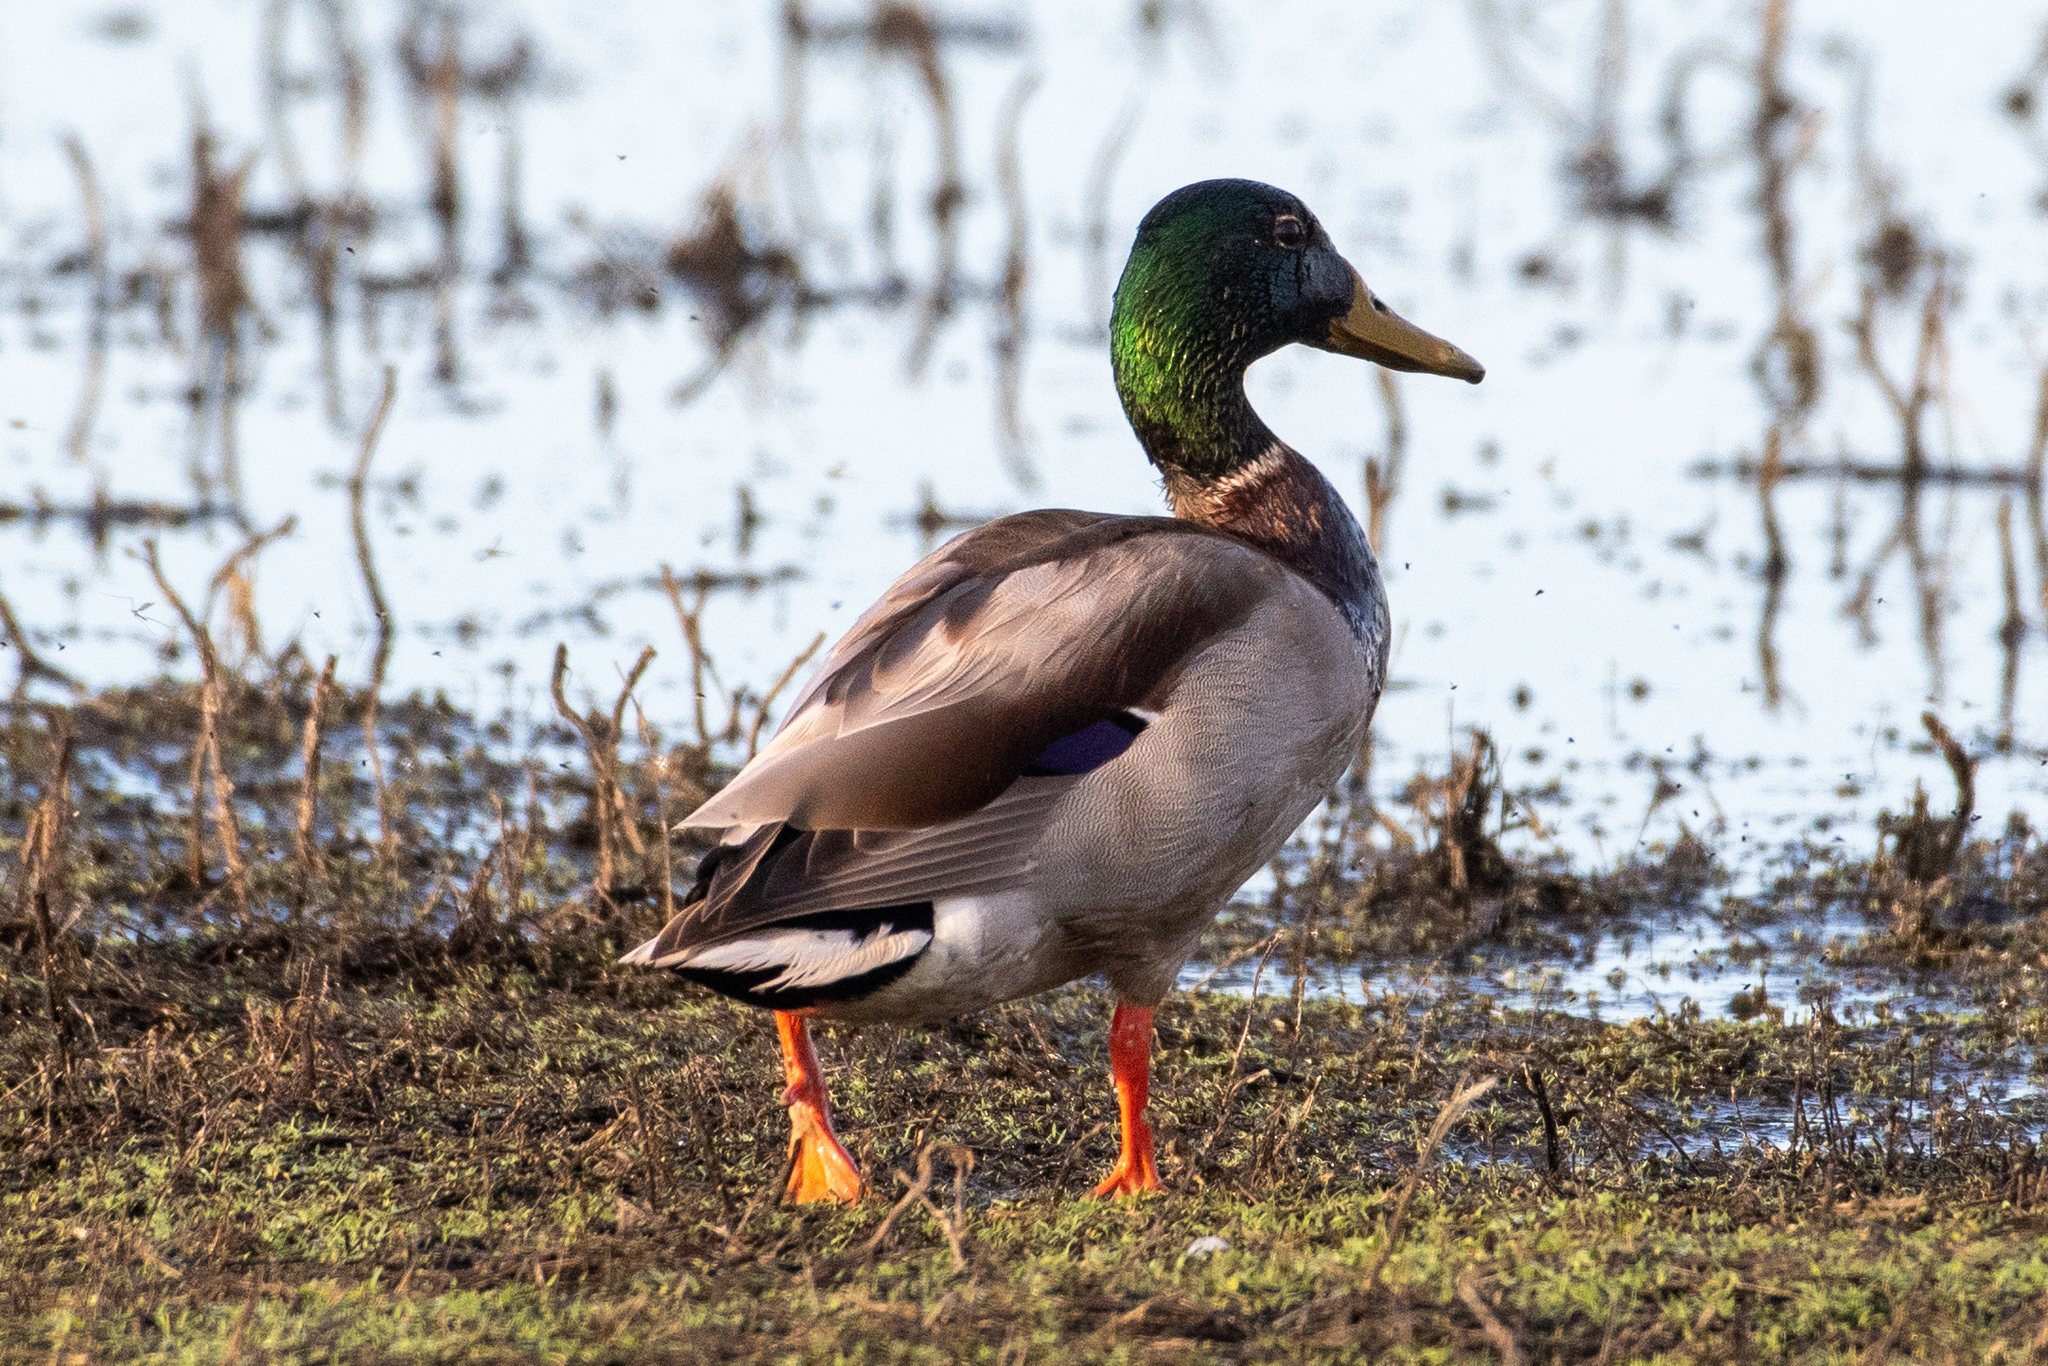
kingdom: Animalia
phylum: Chordata
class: Aves
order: Anseriformes
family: Anatidae
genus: Anas
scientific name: Anas platyrhynchos
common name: Mallard
